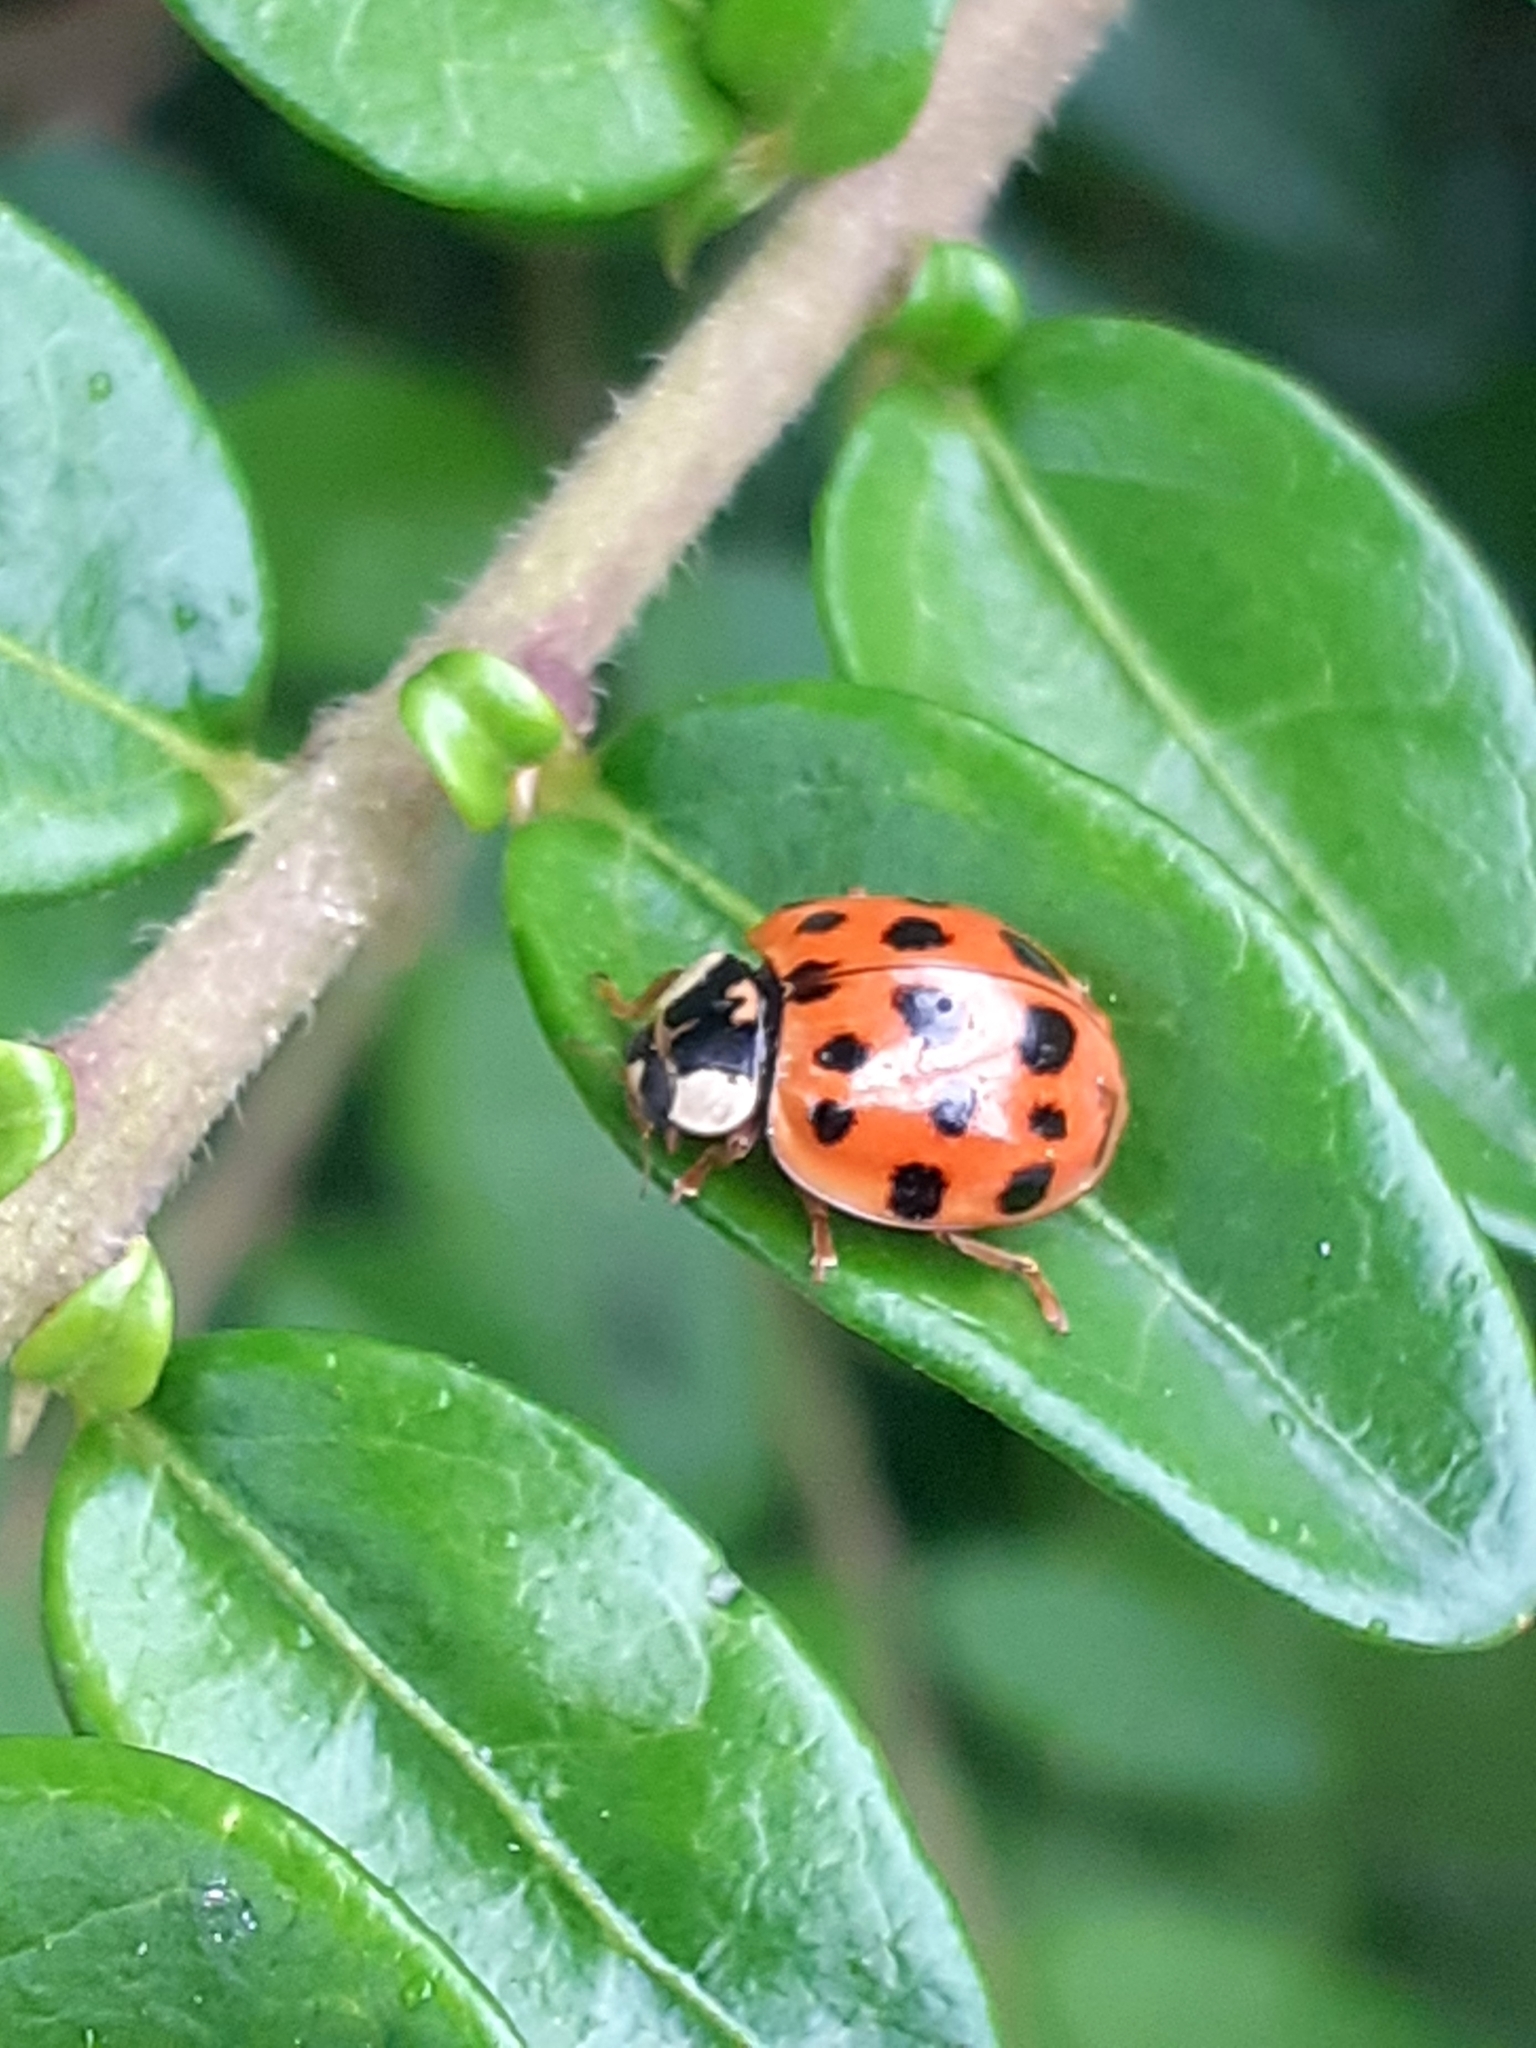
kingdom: Animalia
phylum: Arthropoda
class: Insecta
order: Coleoptera
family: Coccinellidae
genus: Harmonia
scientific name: Harmonia axyridis
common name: Harlequin ladybird
